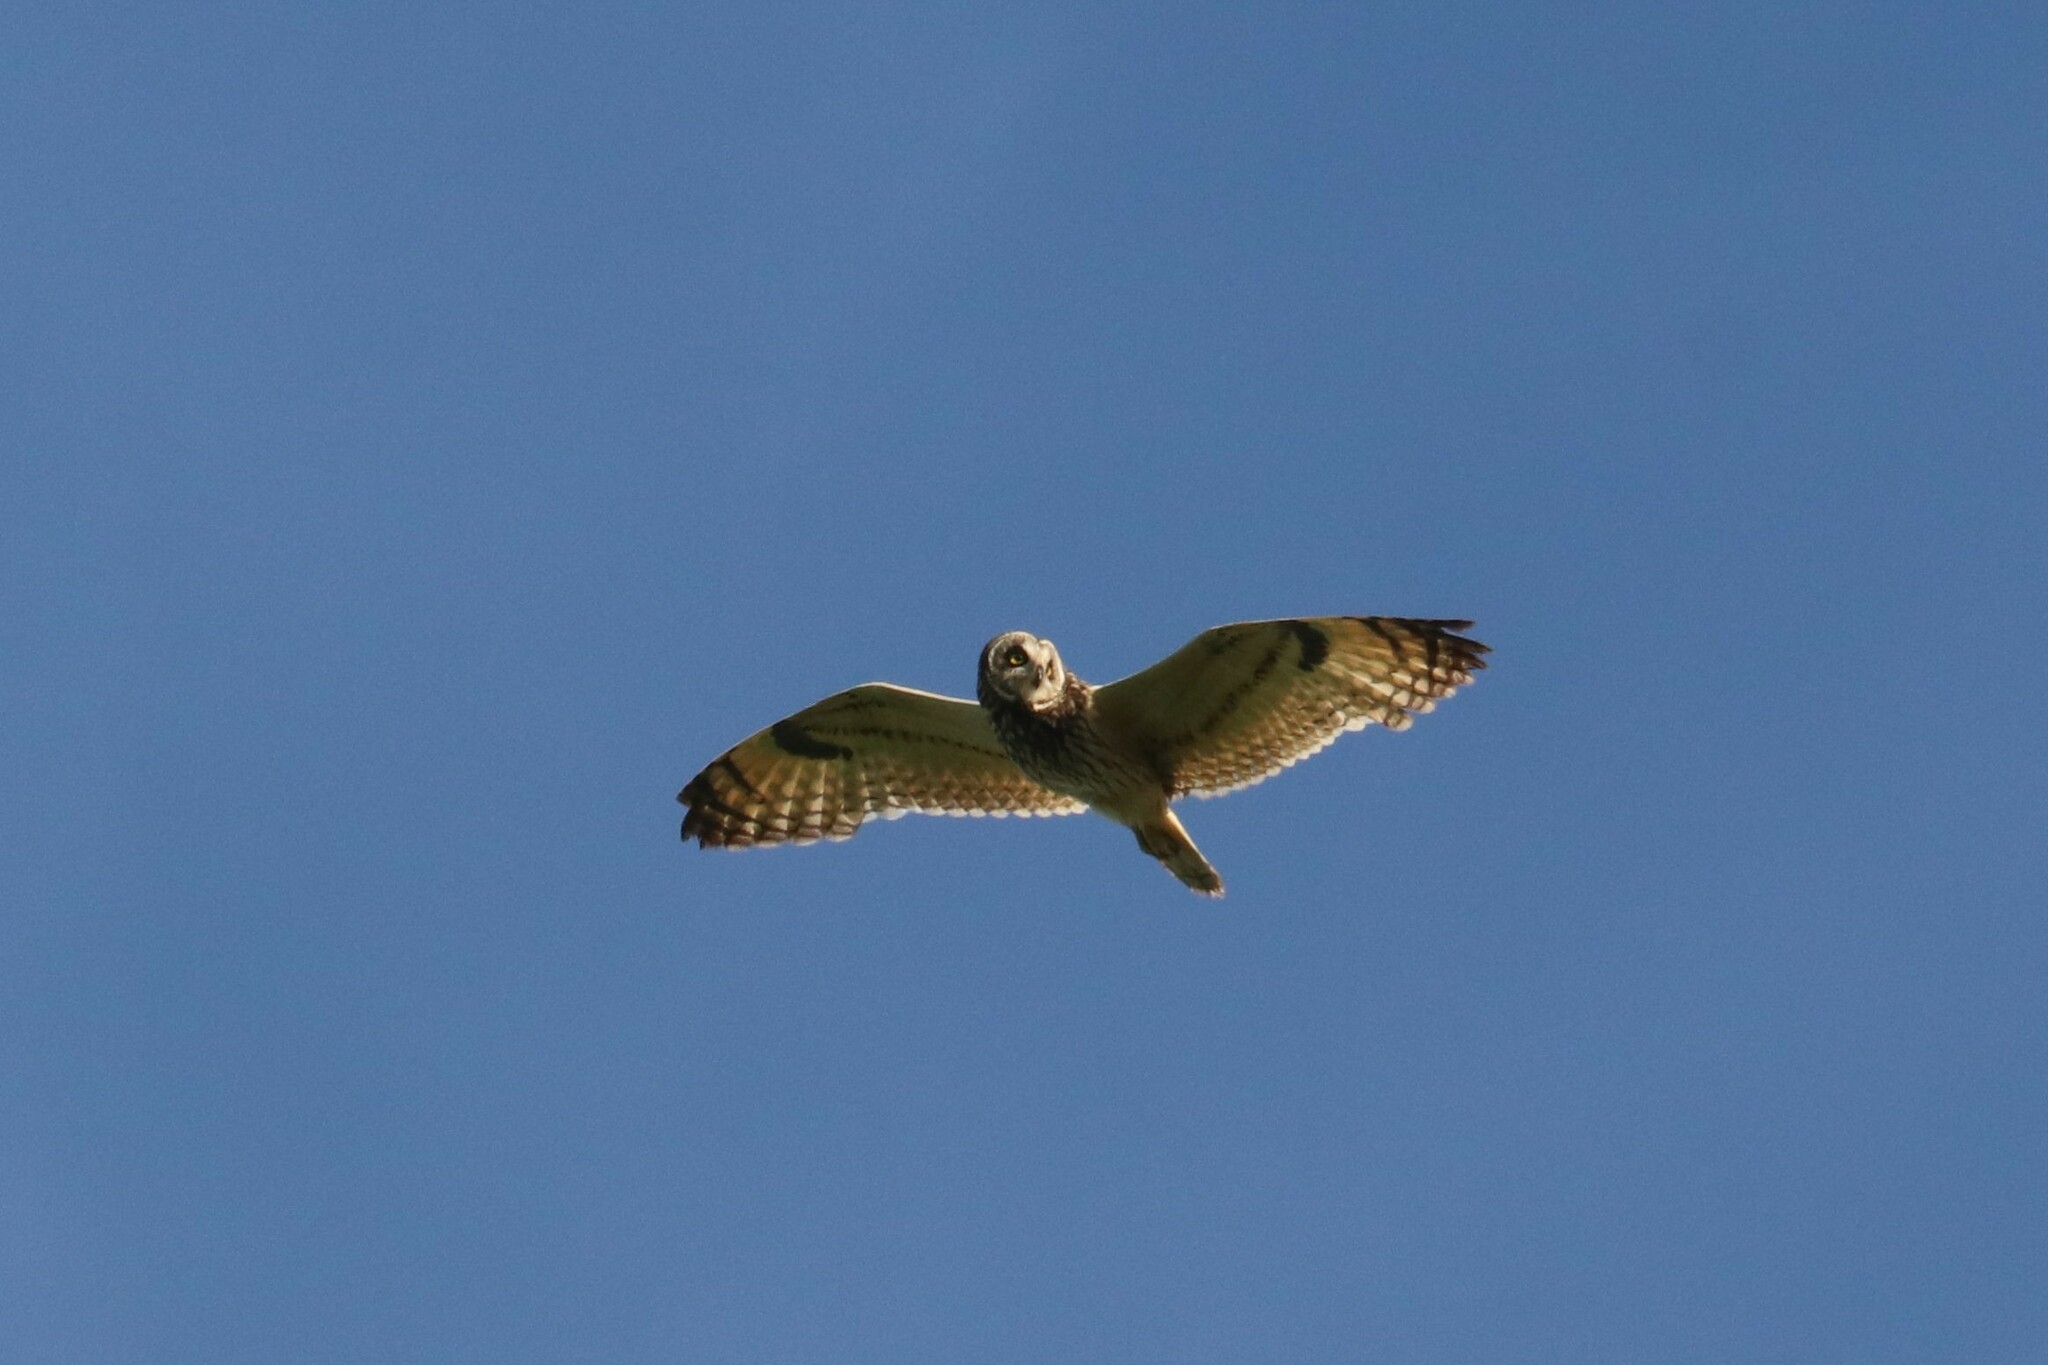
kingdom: Animalia
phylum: Chordata
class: Aves
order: Strigiformes
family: Strigidae
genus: Asio
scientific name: Asio flammeus
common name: Short-eared owl
